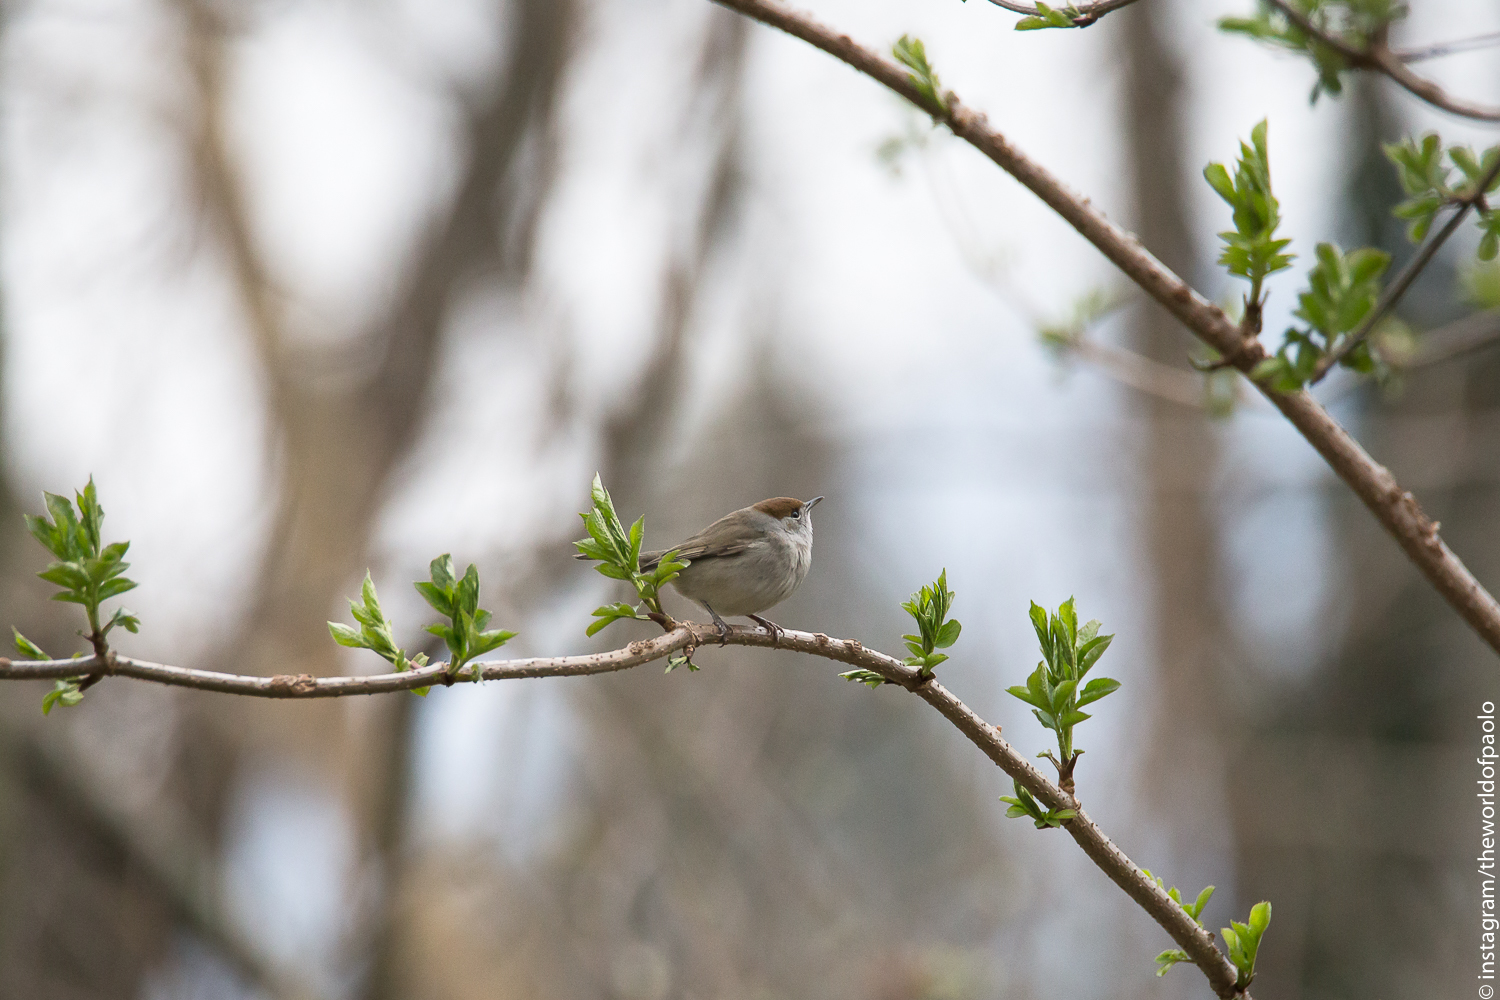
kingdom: Animalia
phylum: Chordata
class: Aves
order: Passeriformes
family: Sylviidae
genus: Sylvia
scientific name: Sylvia atricapilla
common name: Eurasian blackcap
